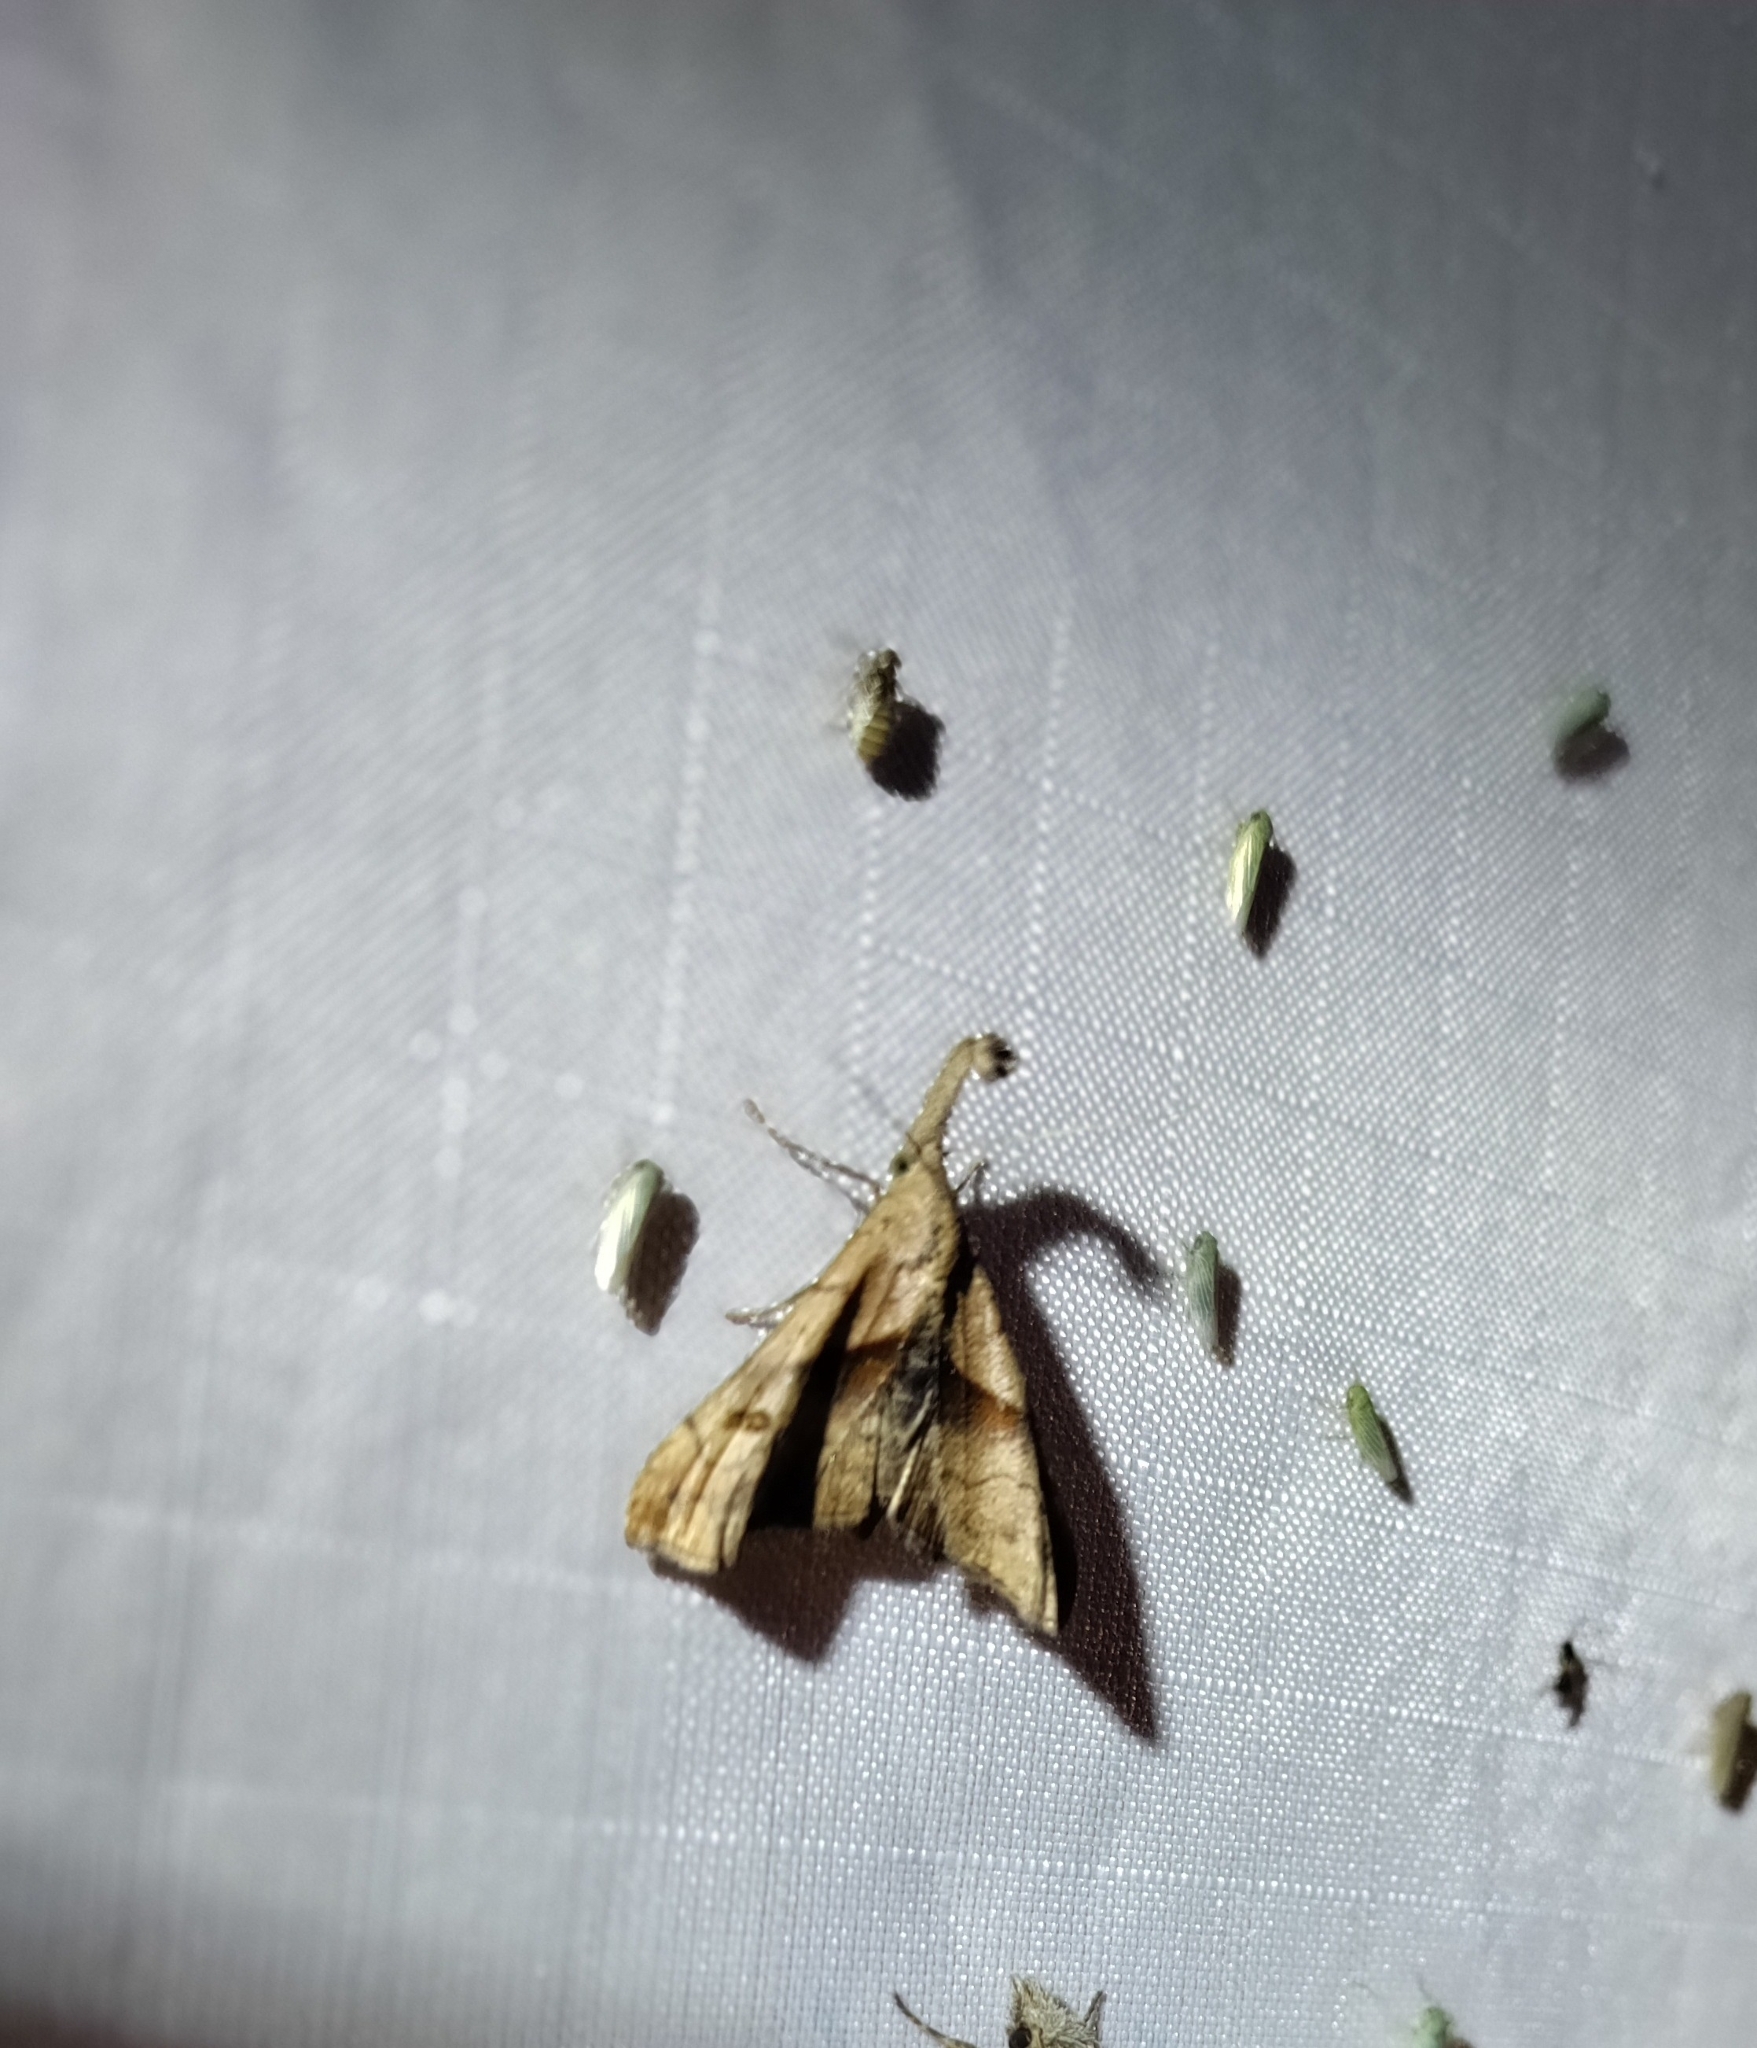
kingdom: Animalia
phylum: Arthropoda
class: Insecta
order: Lepidoptera
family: Erebidae
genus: Palthis
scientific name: Palthis angulalis
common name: Dark-spotted palthis moth
